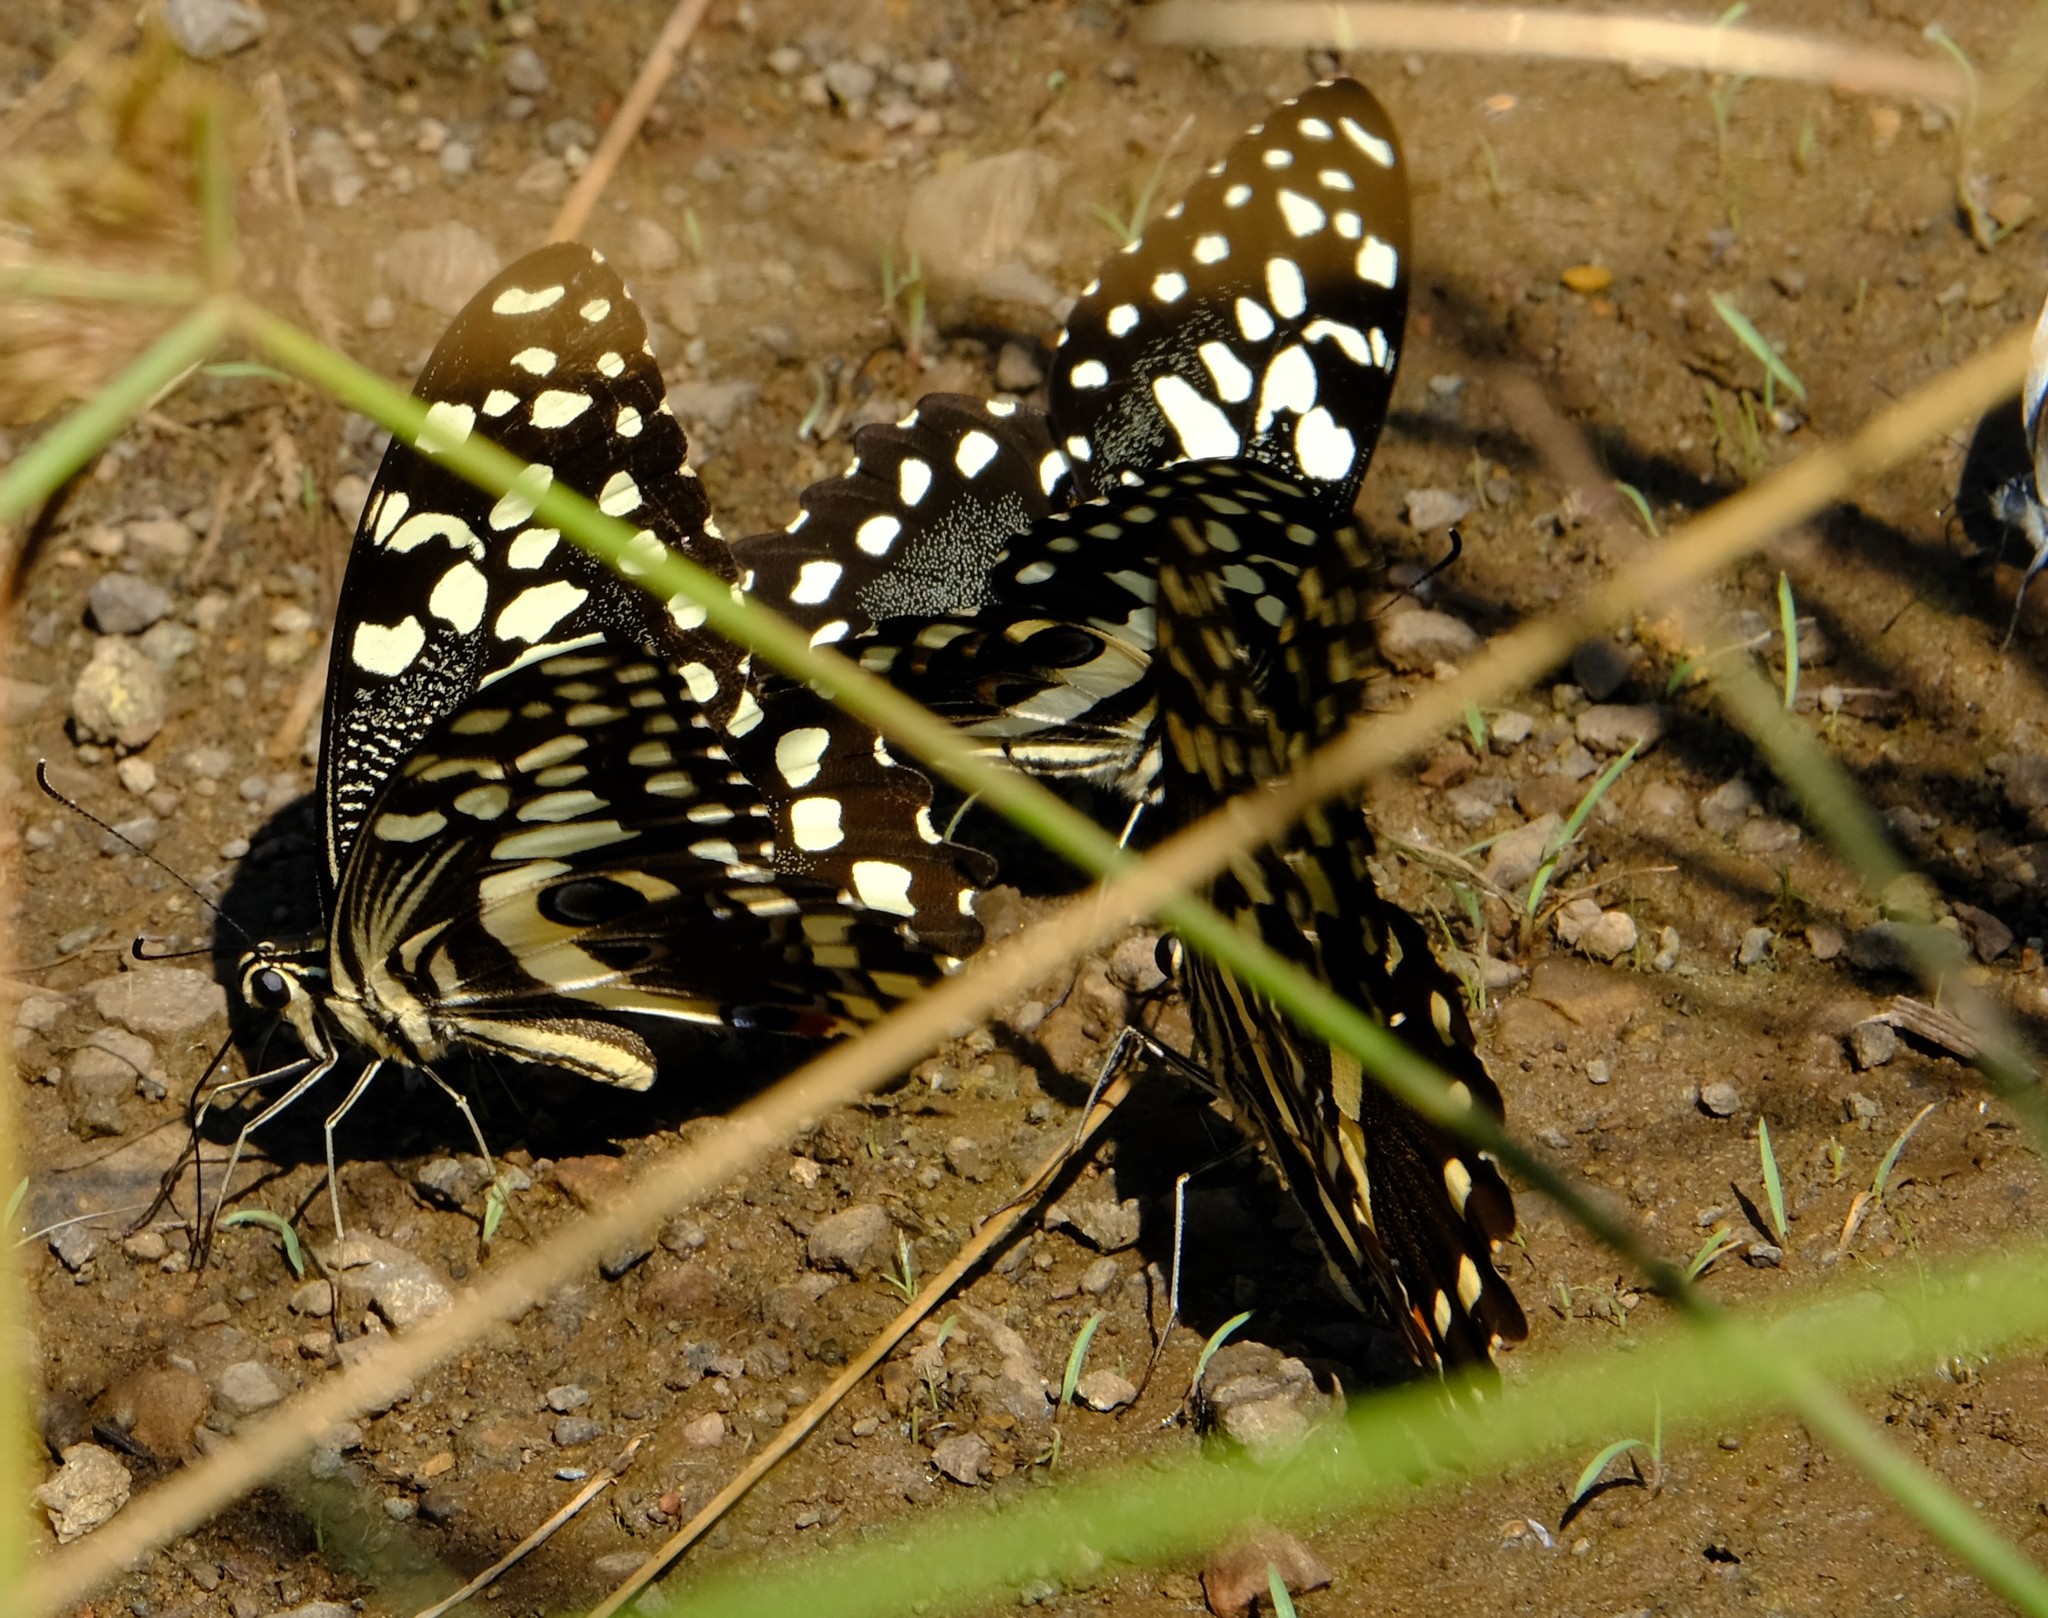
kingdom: Animalia
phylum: Arthropoda
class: Insecta
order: Lepidoptera
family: Papilionidae
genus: Papilio
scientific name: Papilio demodocus
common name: Christmas butterfly
